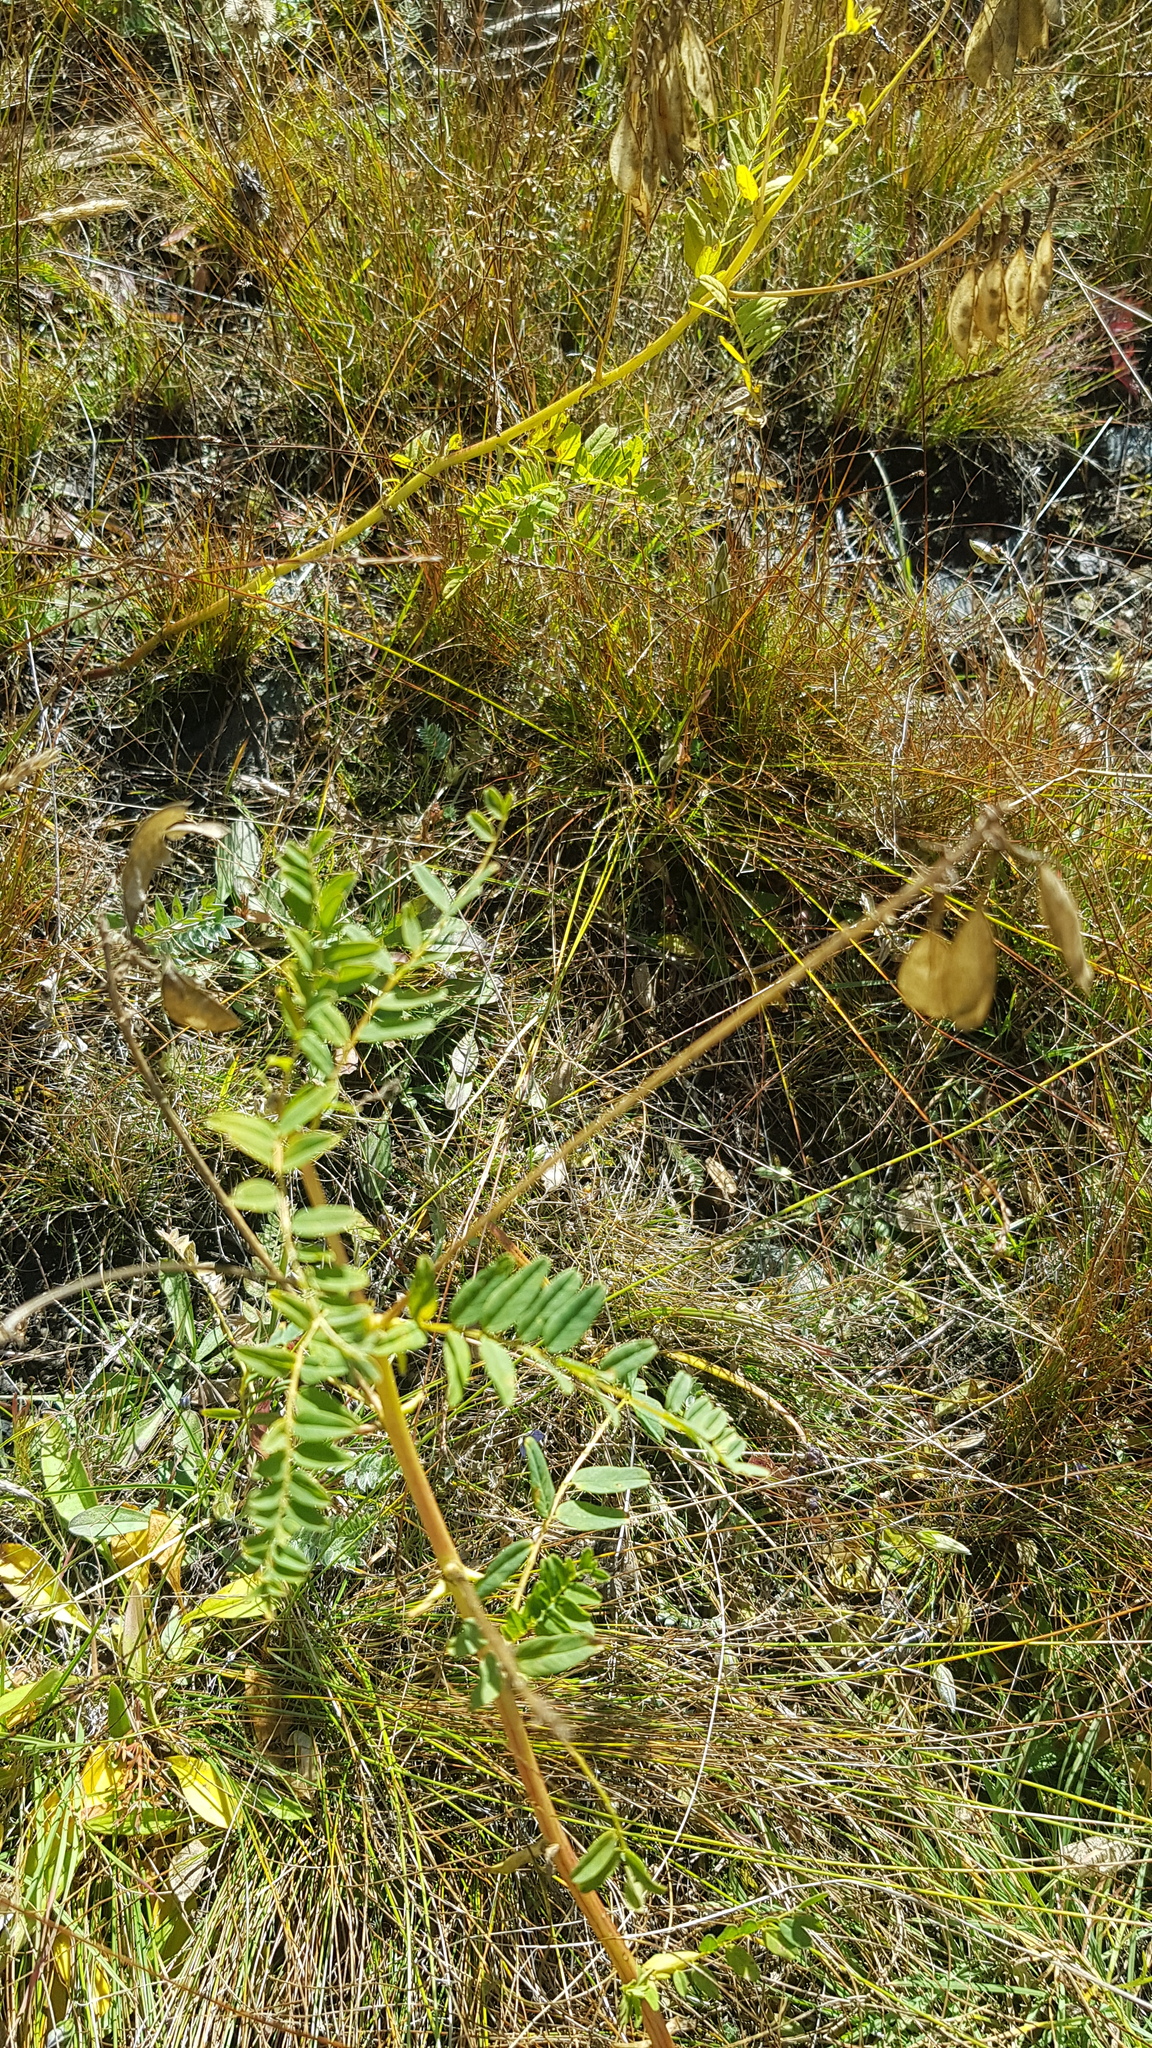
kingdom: Plantae
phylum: Tracheophyta
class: Magnoliopsida
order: Fabales
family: Fabaceae
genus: Astragalus
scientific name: Astragalus mongholicus
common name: Membranous milk-vetch
